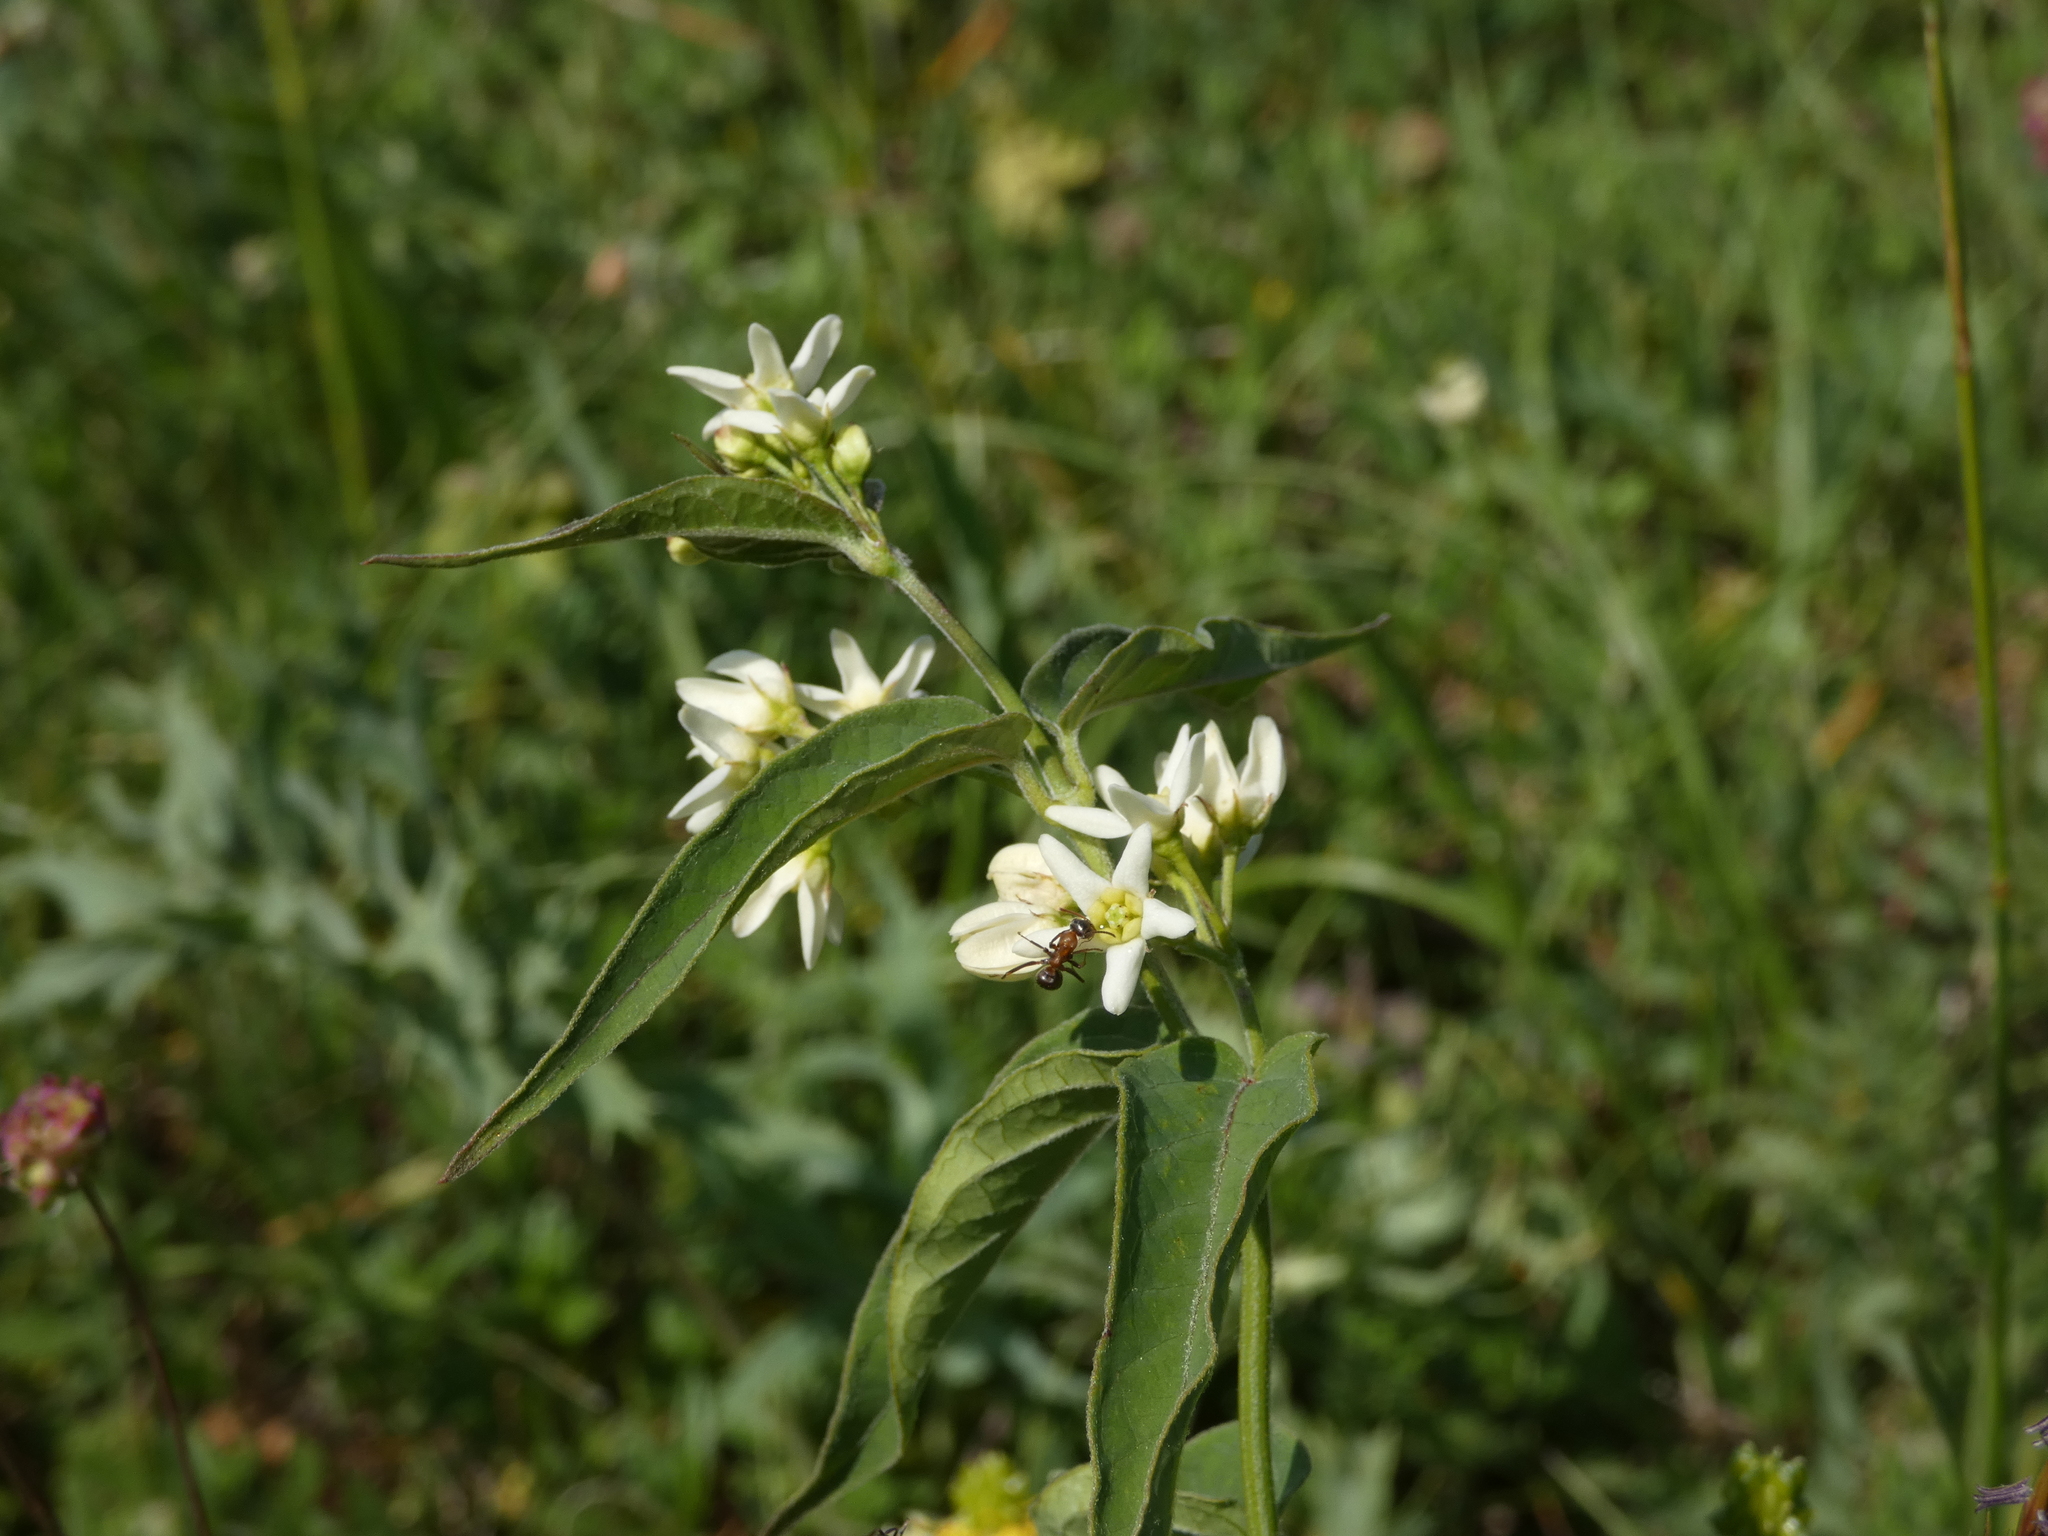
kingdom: Plantae
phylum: Tracheophyta
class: Magnoliopsida
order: Gentianales
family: Apocynaceae
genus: Vincetoxicum
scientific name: Vincetoxicum hirundinaria
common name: White swallowwort
